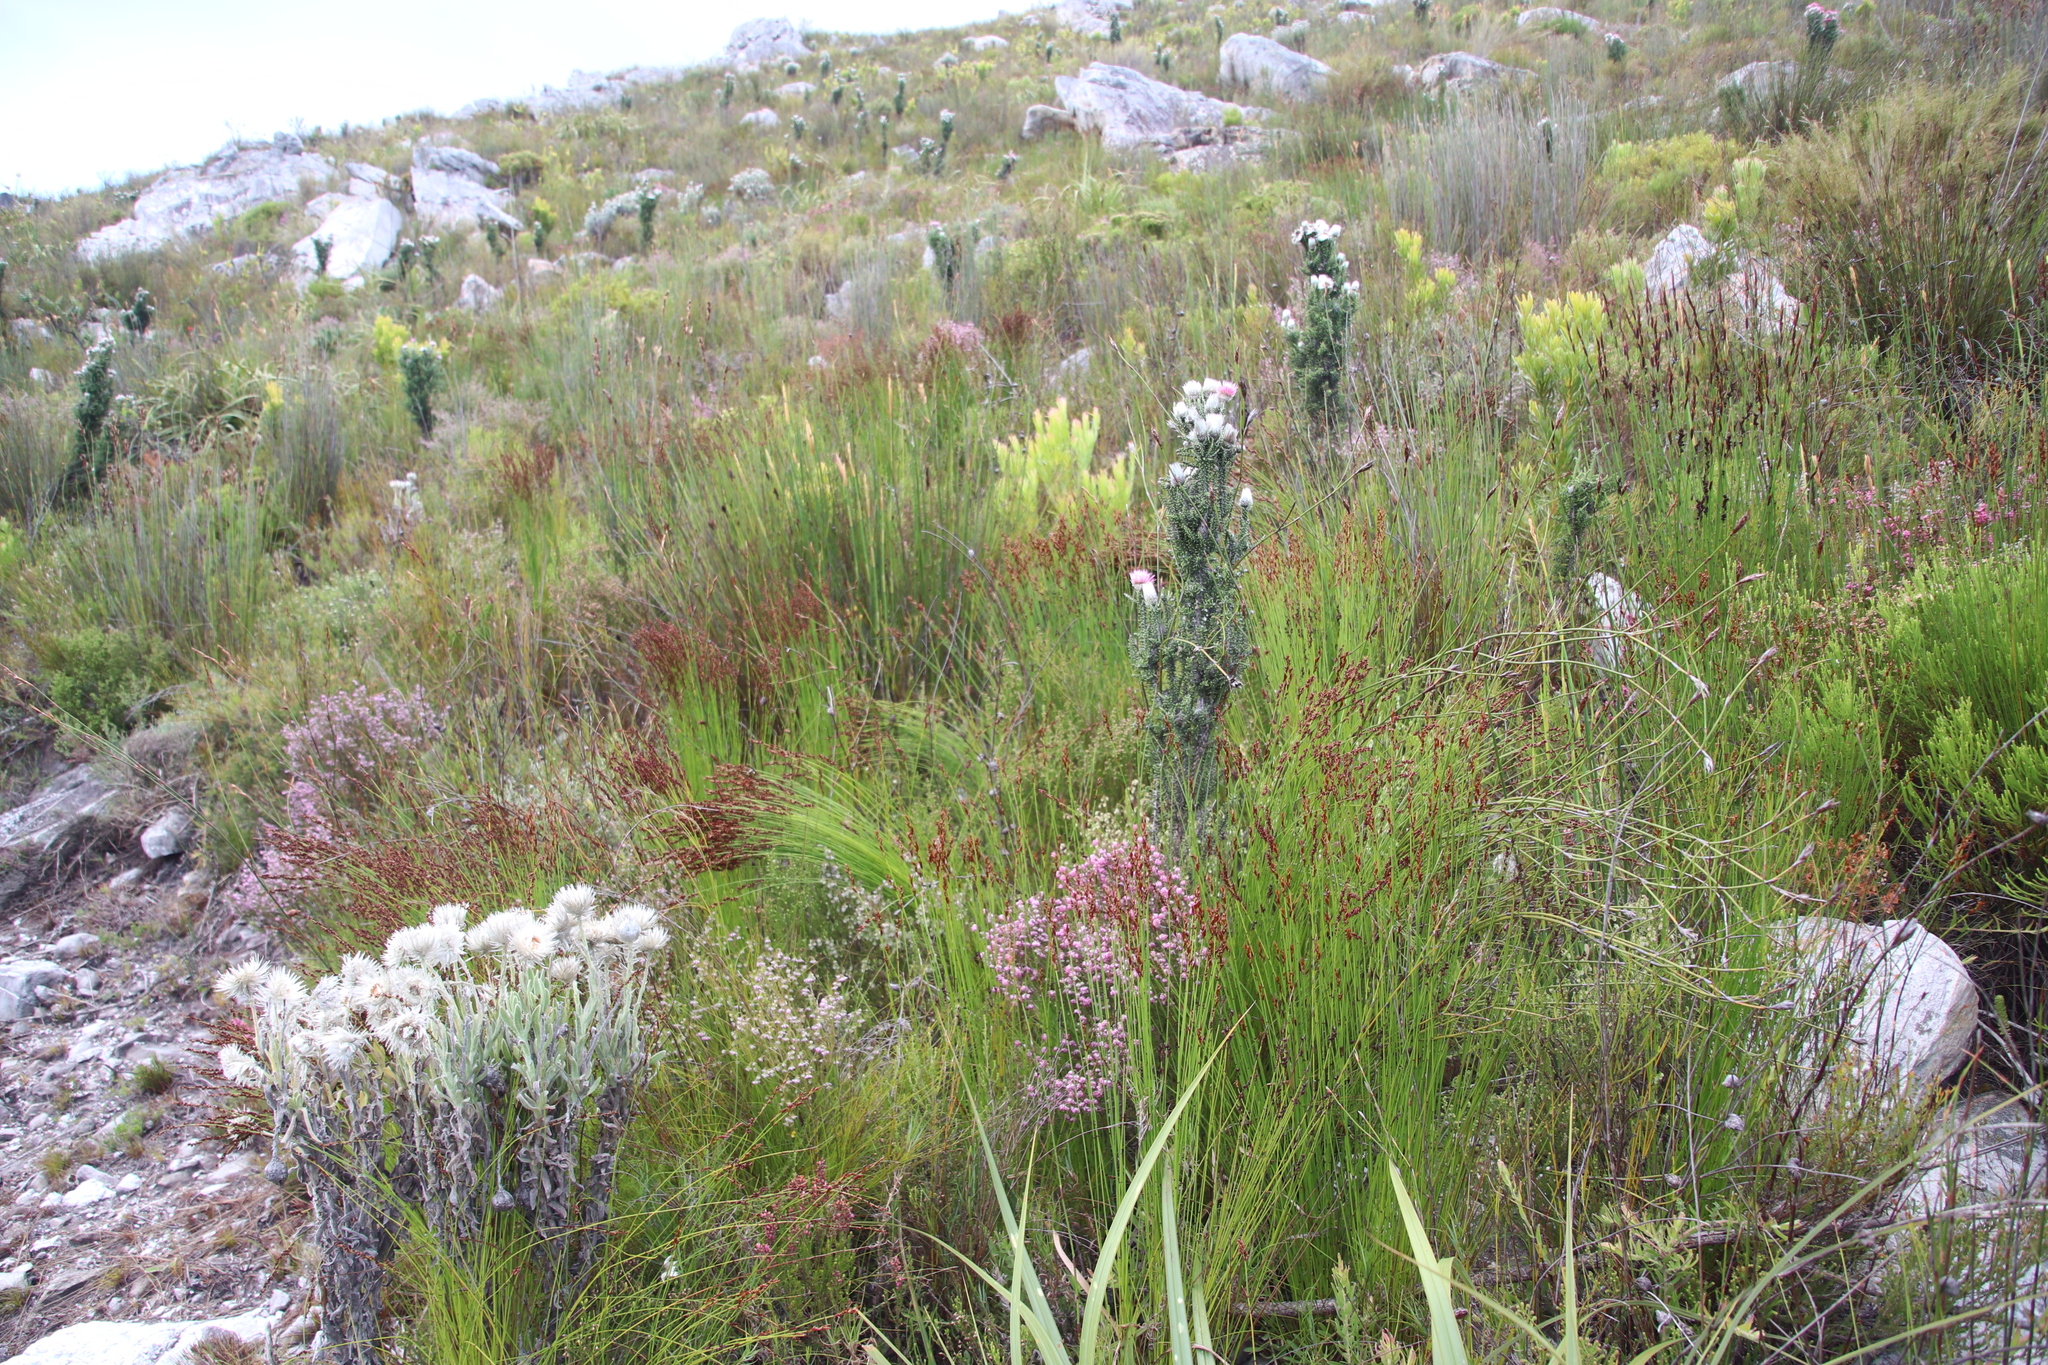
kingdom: Plantae
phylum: Tracheophyta
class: Liliopsida
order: Poales
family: Restionaceae
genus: Elegia
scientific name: Elegia hookeriana
